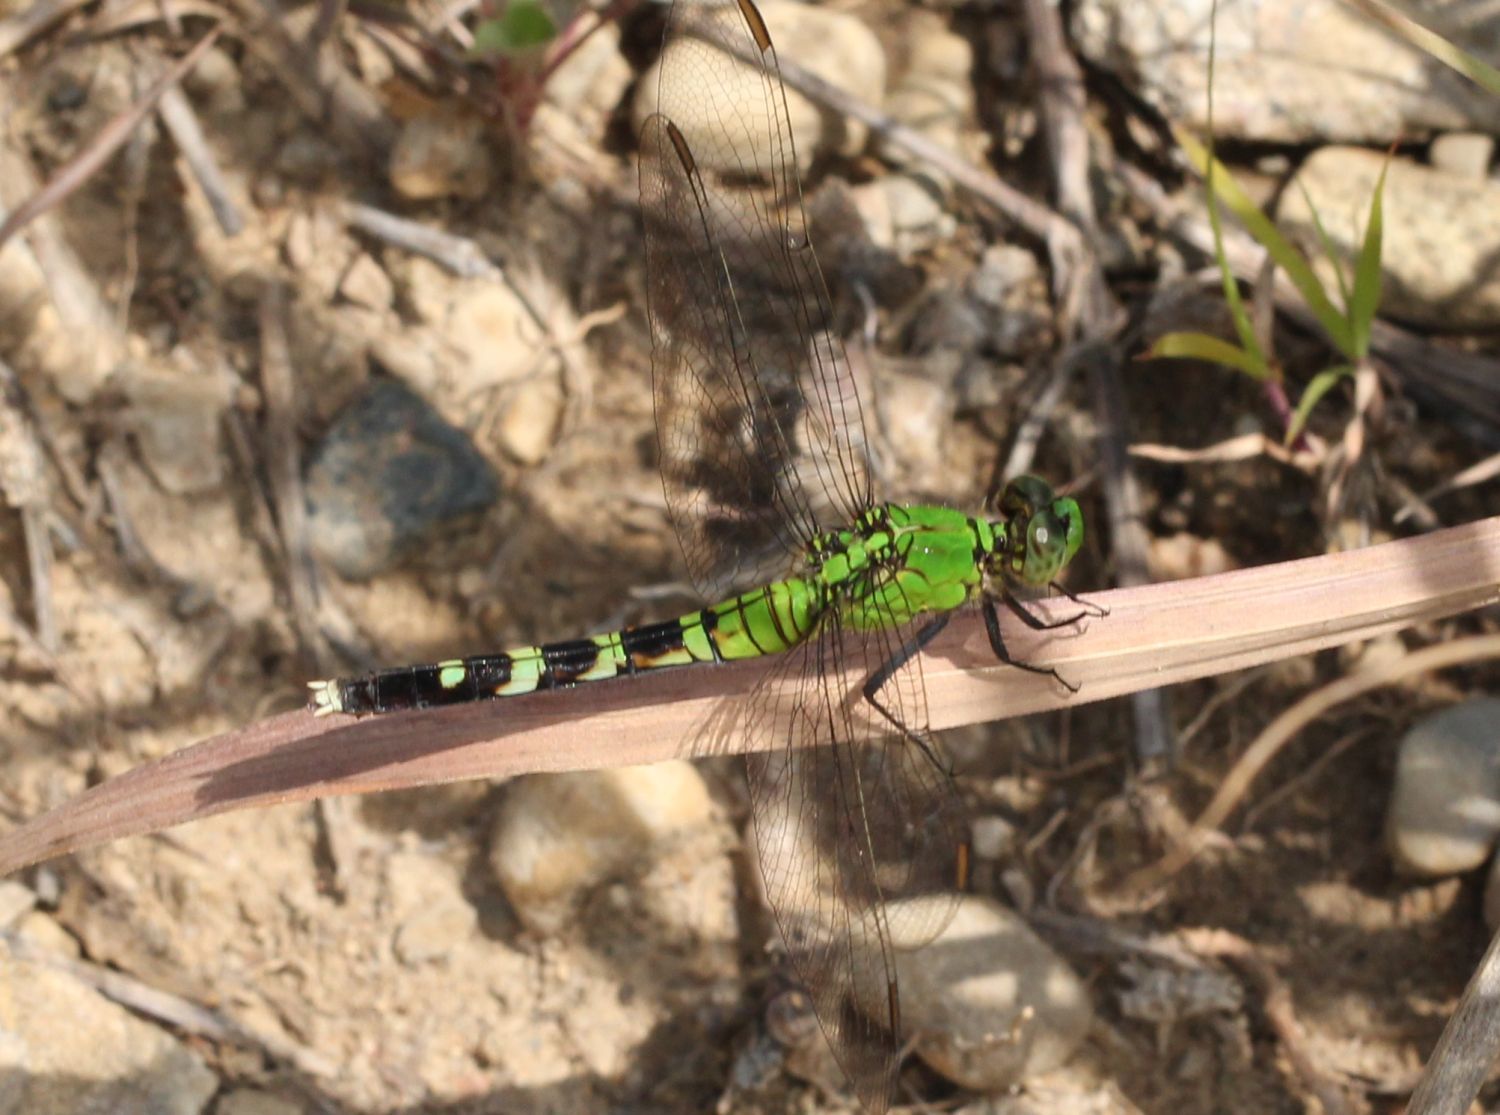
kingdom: Animalia
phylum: Arthropoda
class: Insecta
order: Odonata
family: Libellulidae
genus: Erythemis
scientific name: Erythemis simplicicollis
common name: Eastern pondhawk
